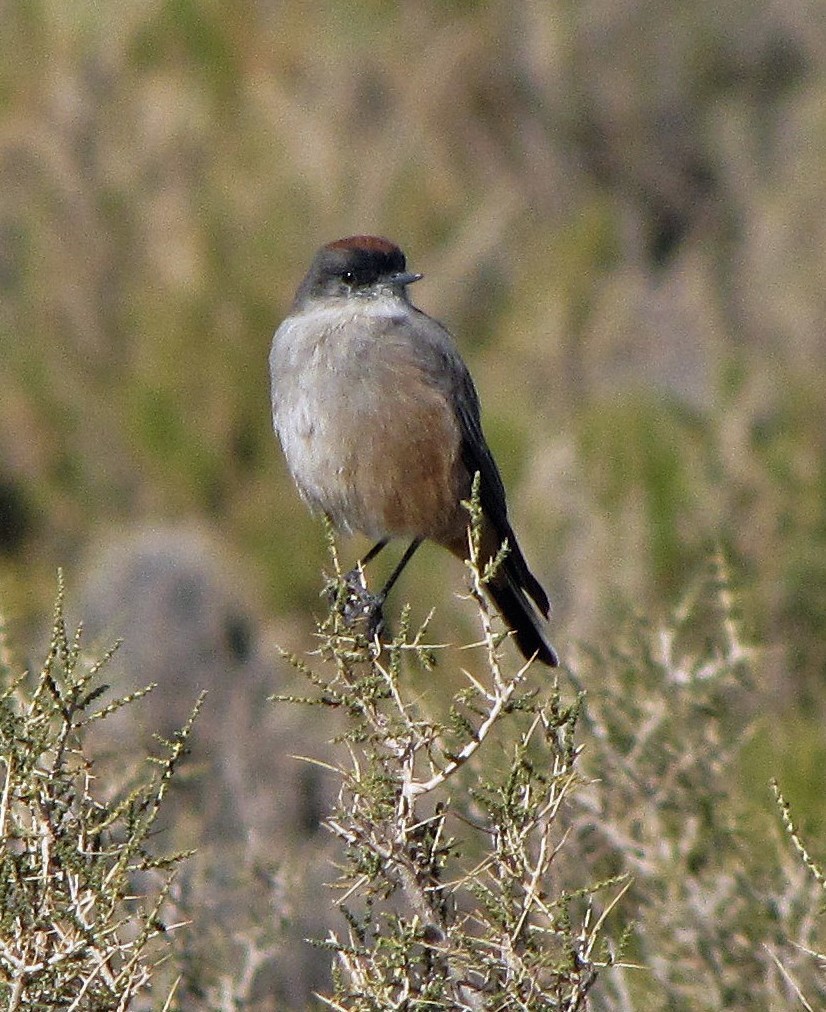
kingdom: Animalia
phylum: Chordata
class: Aves
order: Passeriformes
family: Tyrannidae
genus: Muscisaxicola
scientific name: Muscisaxicola capistratus
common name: Cinnamon-bellied ground tyrant
